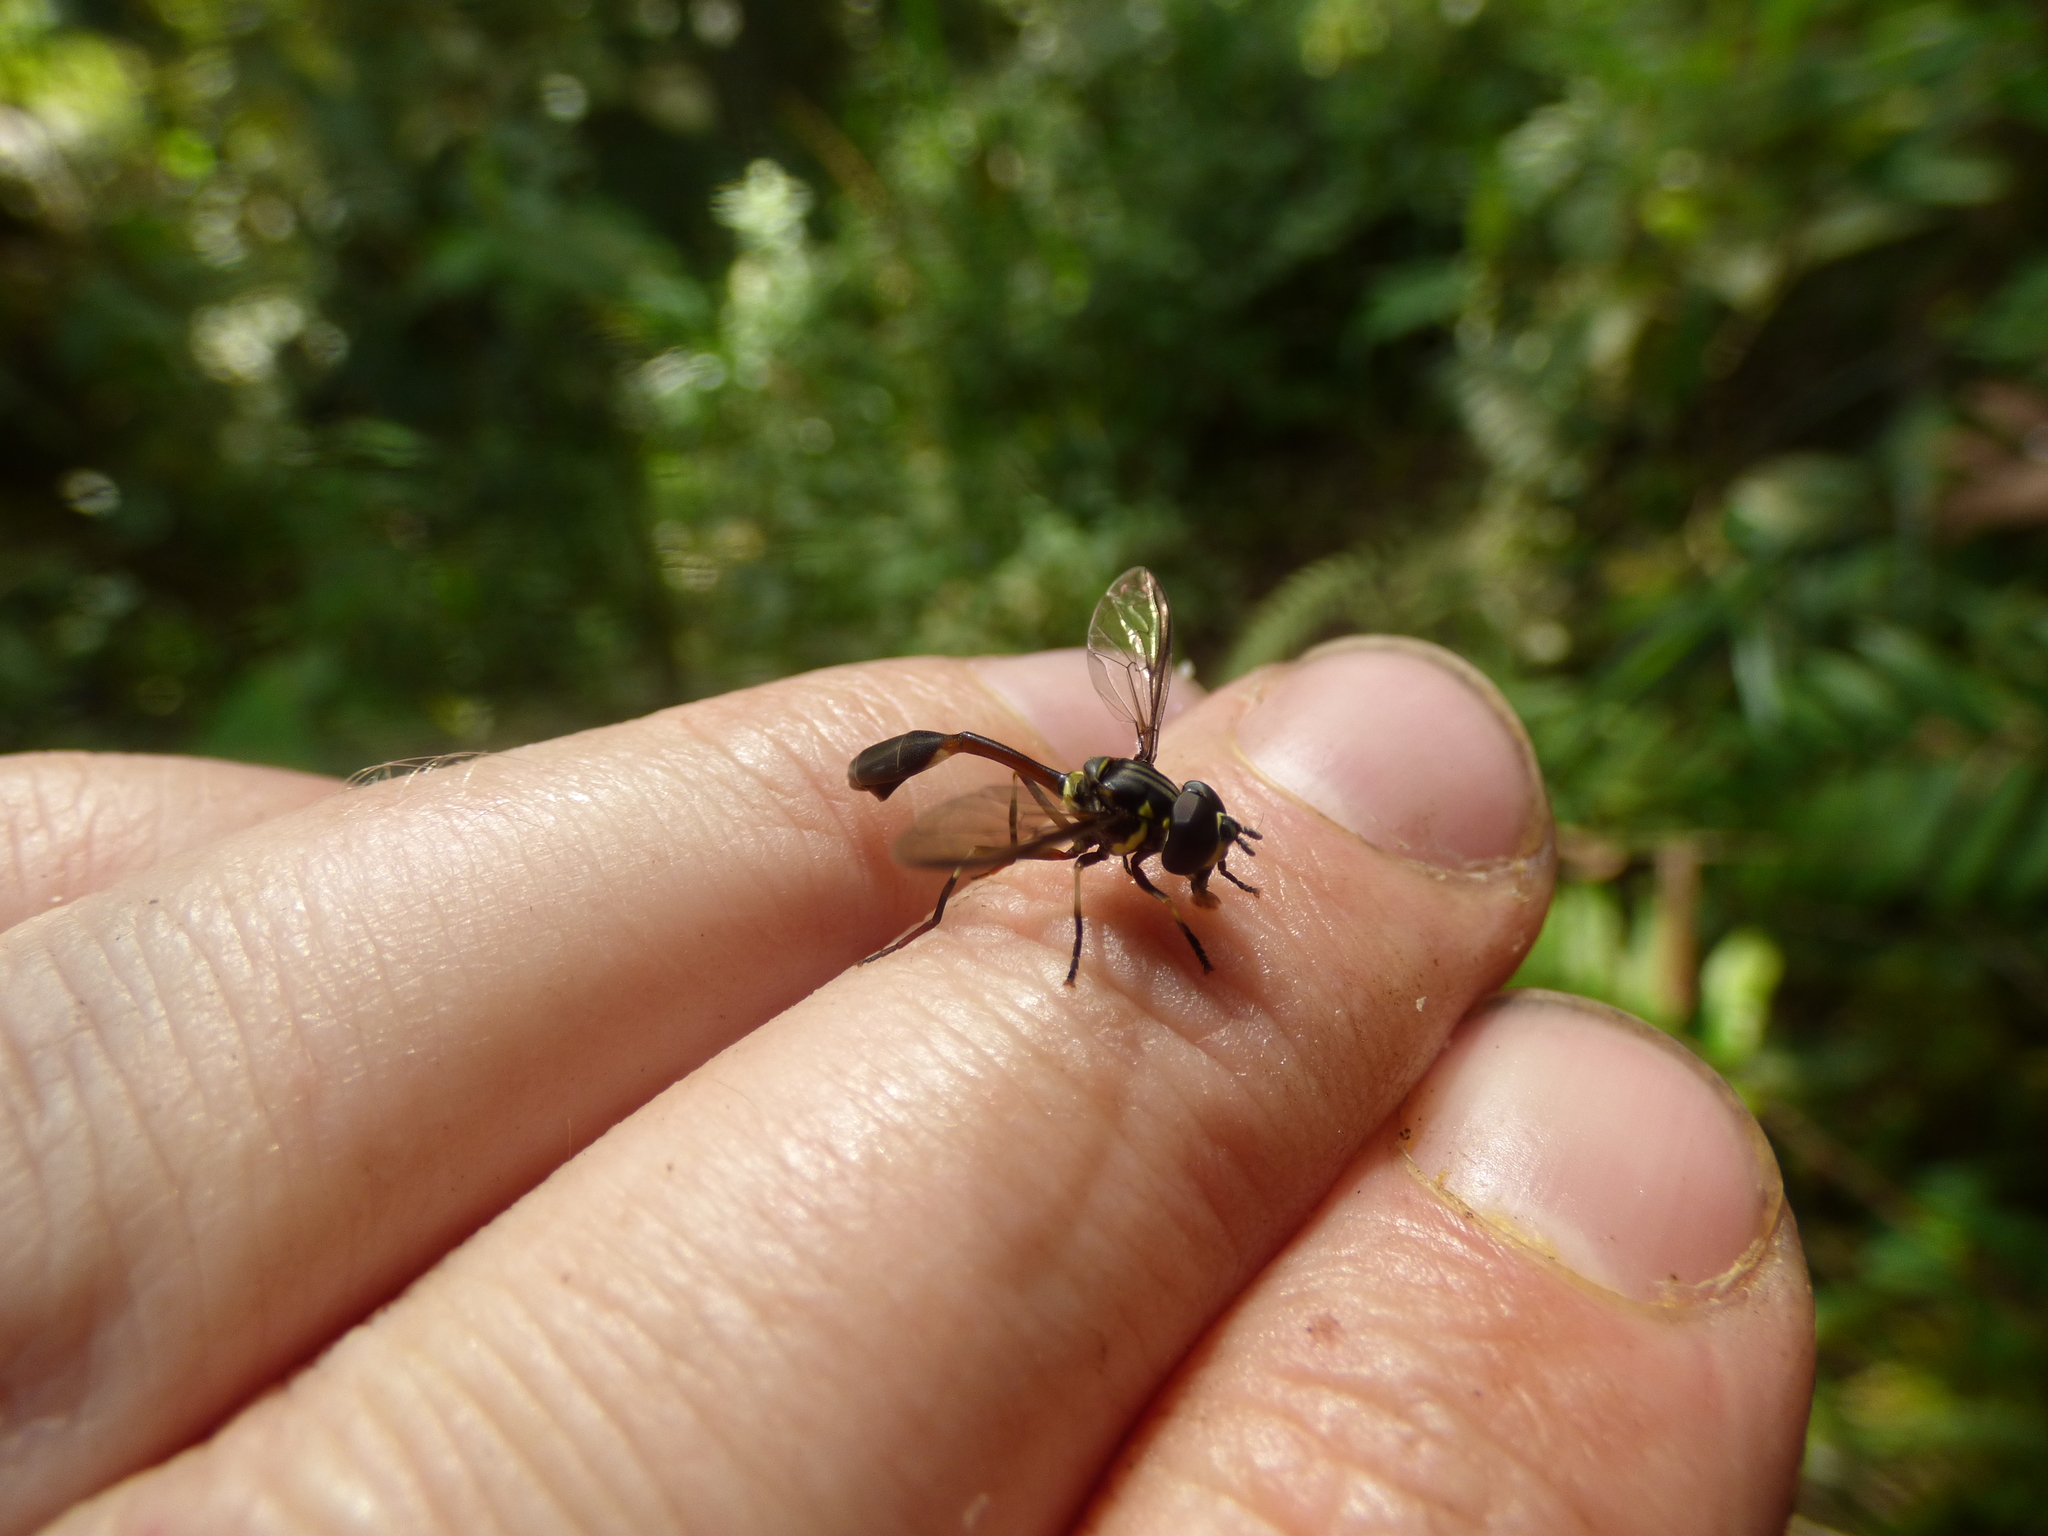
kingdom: Animalia
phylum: Arthropoda
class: Insecta
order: Diptera
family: Syrphidae
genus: Salpingogaster
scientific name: Salpingogaster nigra
